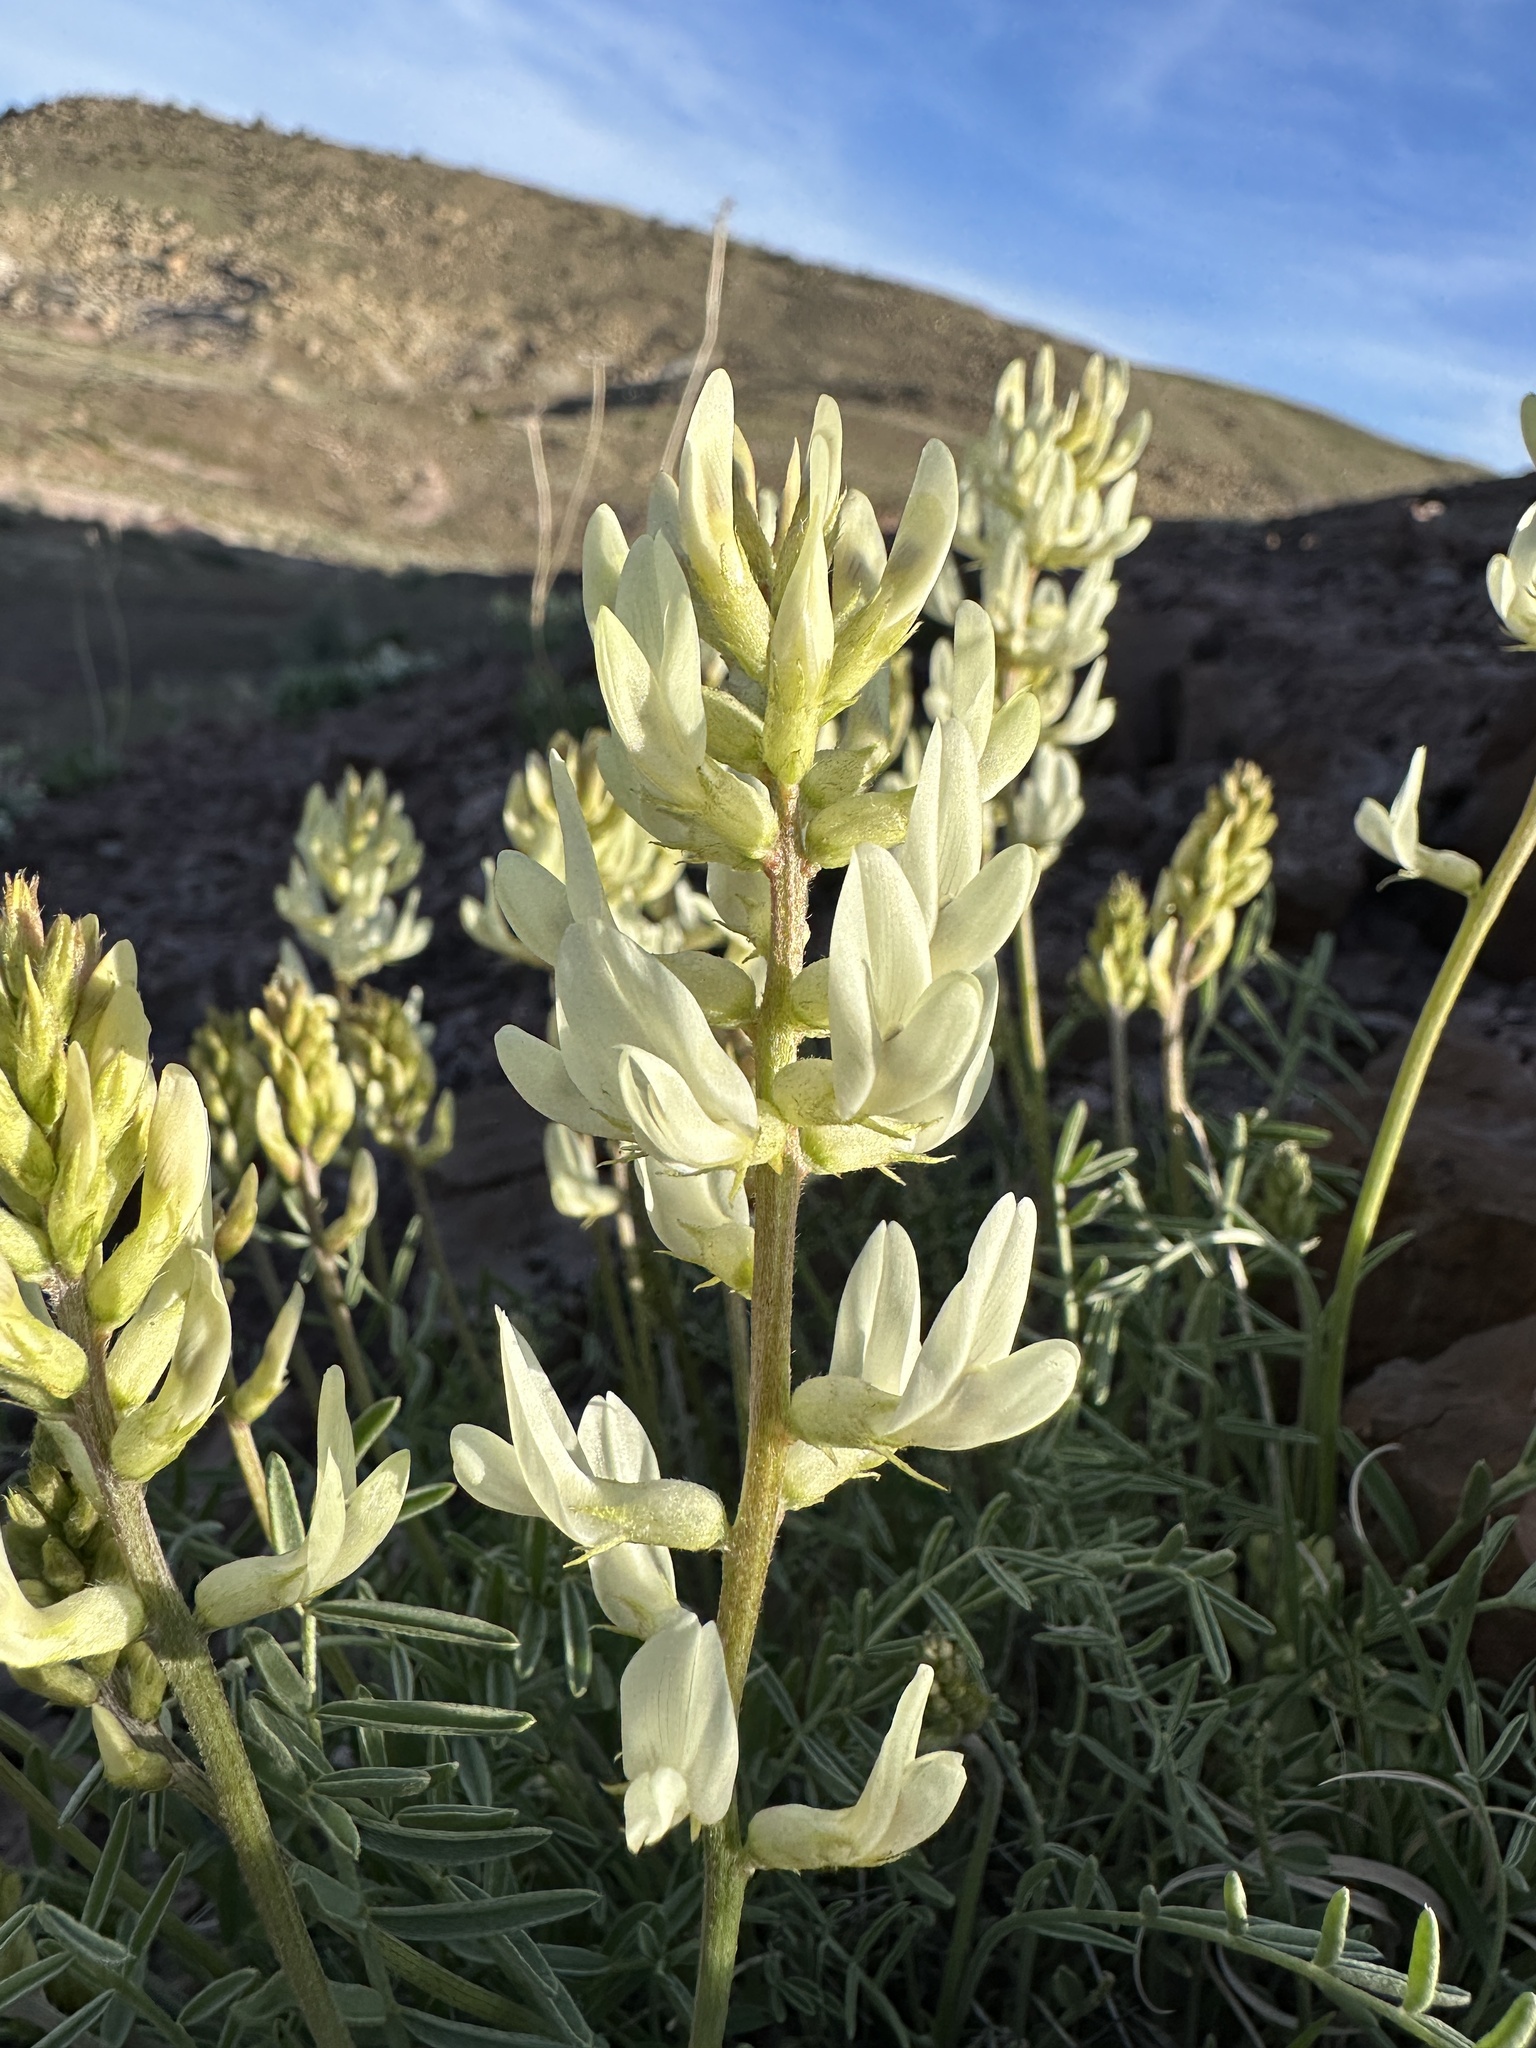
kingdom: Plantae
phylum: Tracheophyta
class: Magnoliopsida
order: Fabales
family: Fabaceae
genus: Astragalus
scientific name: Astragalus flavus
